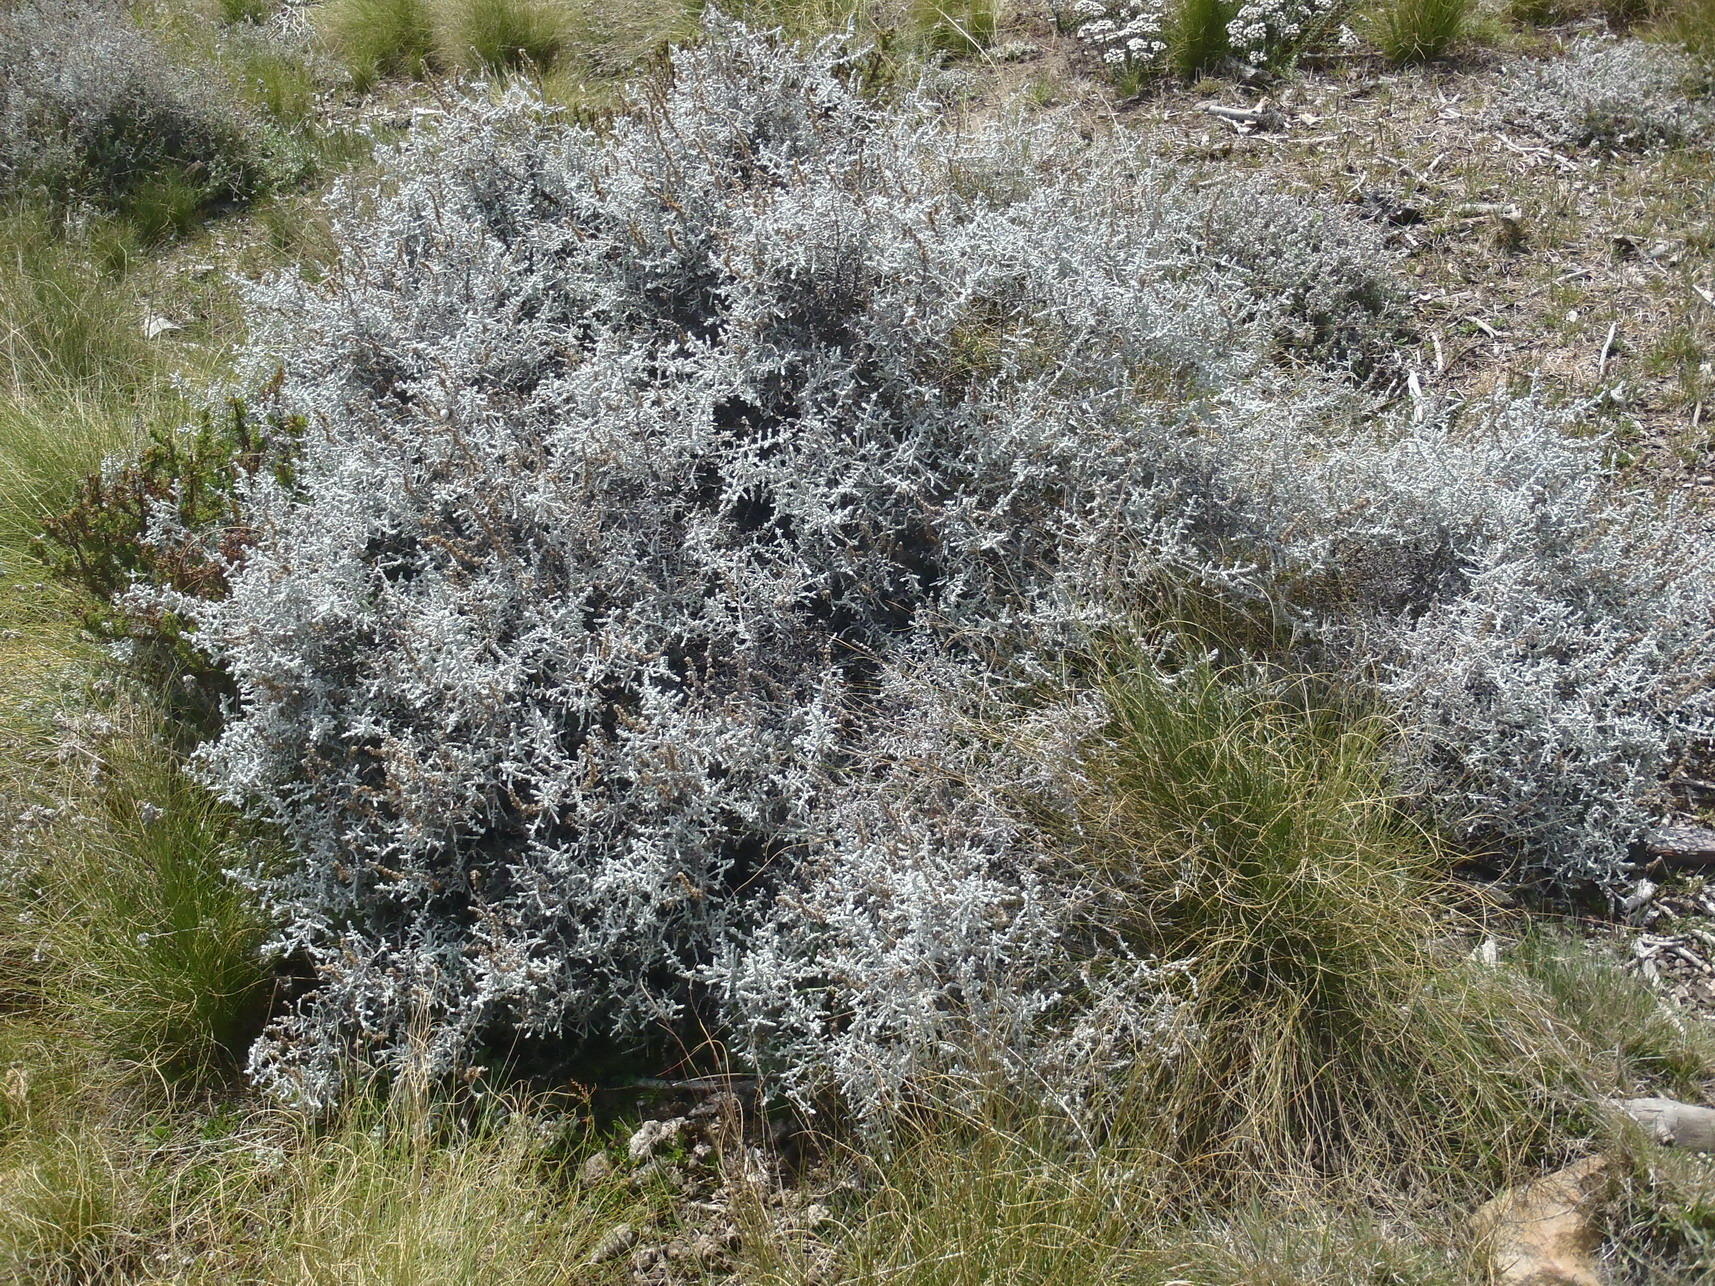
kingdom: Plantae
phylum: Tracheophyta
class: Magnoliopsida
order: Asterales
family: Asteraceae
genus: Seriphium
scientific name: Seriphium plumosum
